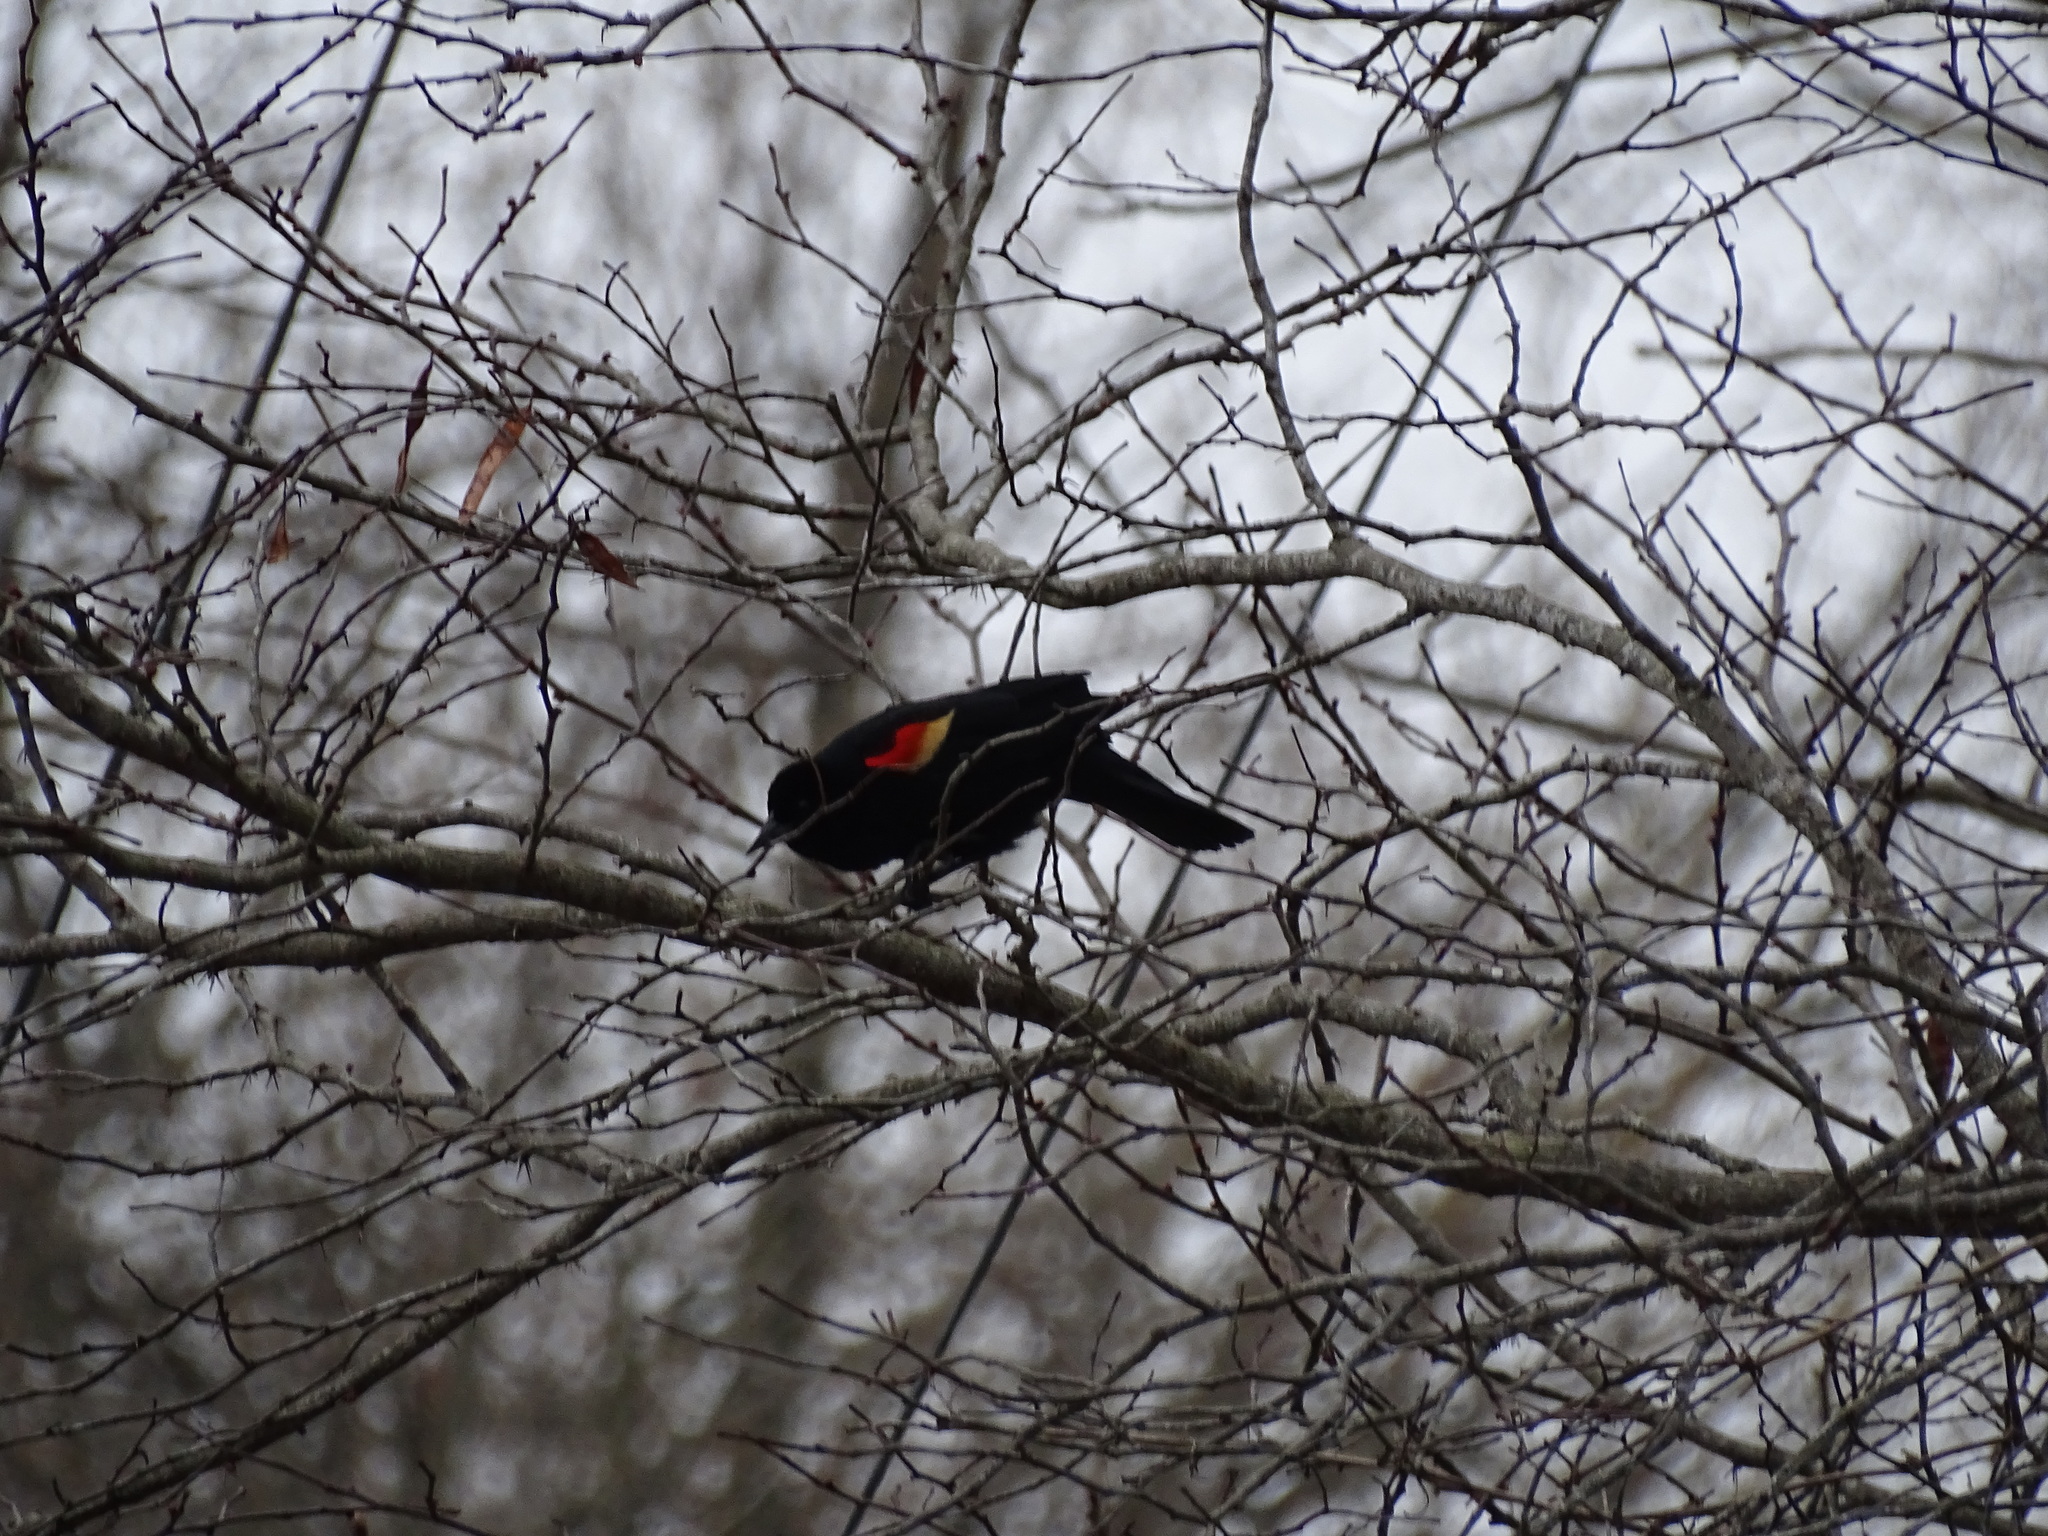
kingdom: Animalia
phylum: Chordata
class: Aves
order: Passeriformes
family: Icteridae
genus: Agelaius
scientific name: Agelaius phoeniceus
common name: Red-winged blackbird
